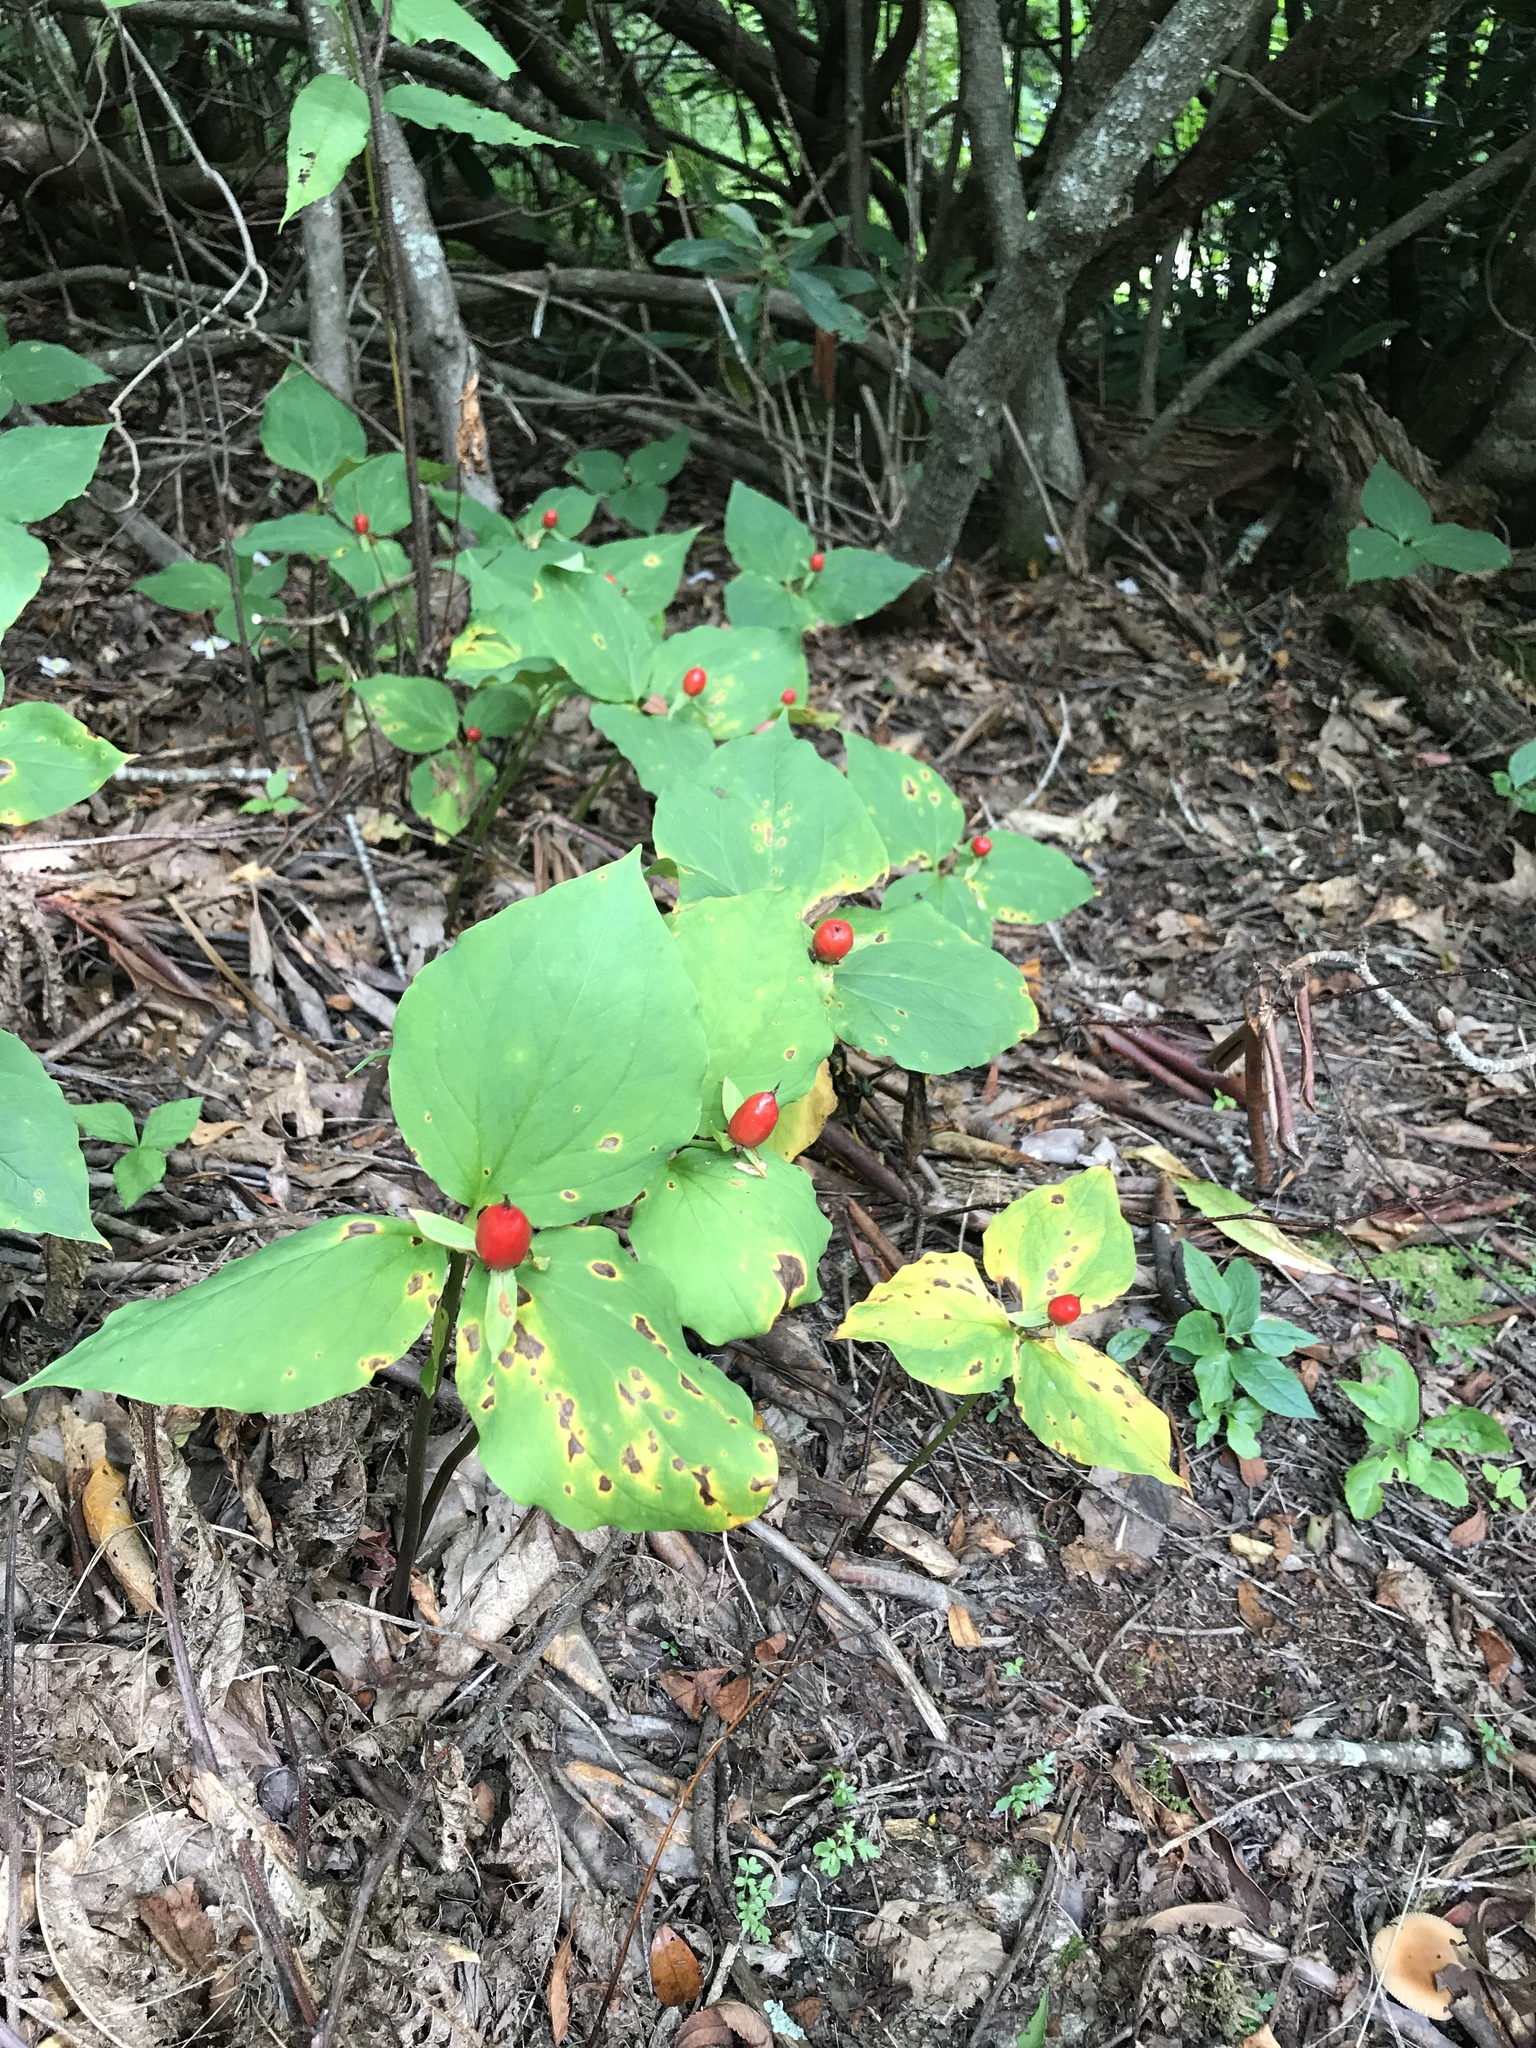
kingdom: Plantae
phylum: Tracheophyta
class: Liliopsida
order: Liliales
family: Melanthiaceae
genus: Trillium
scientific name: Trillium undulatum
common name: Paint trillium
